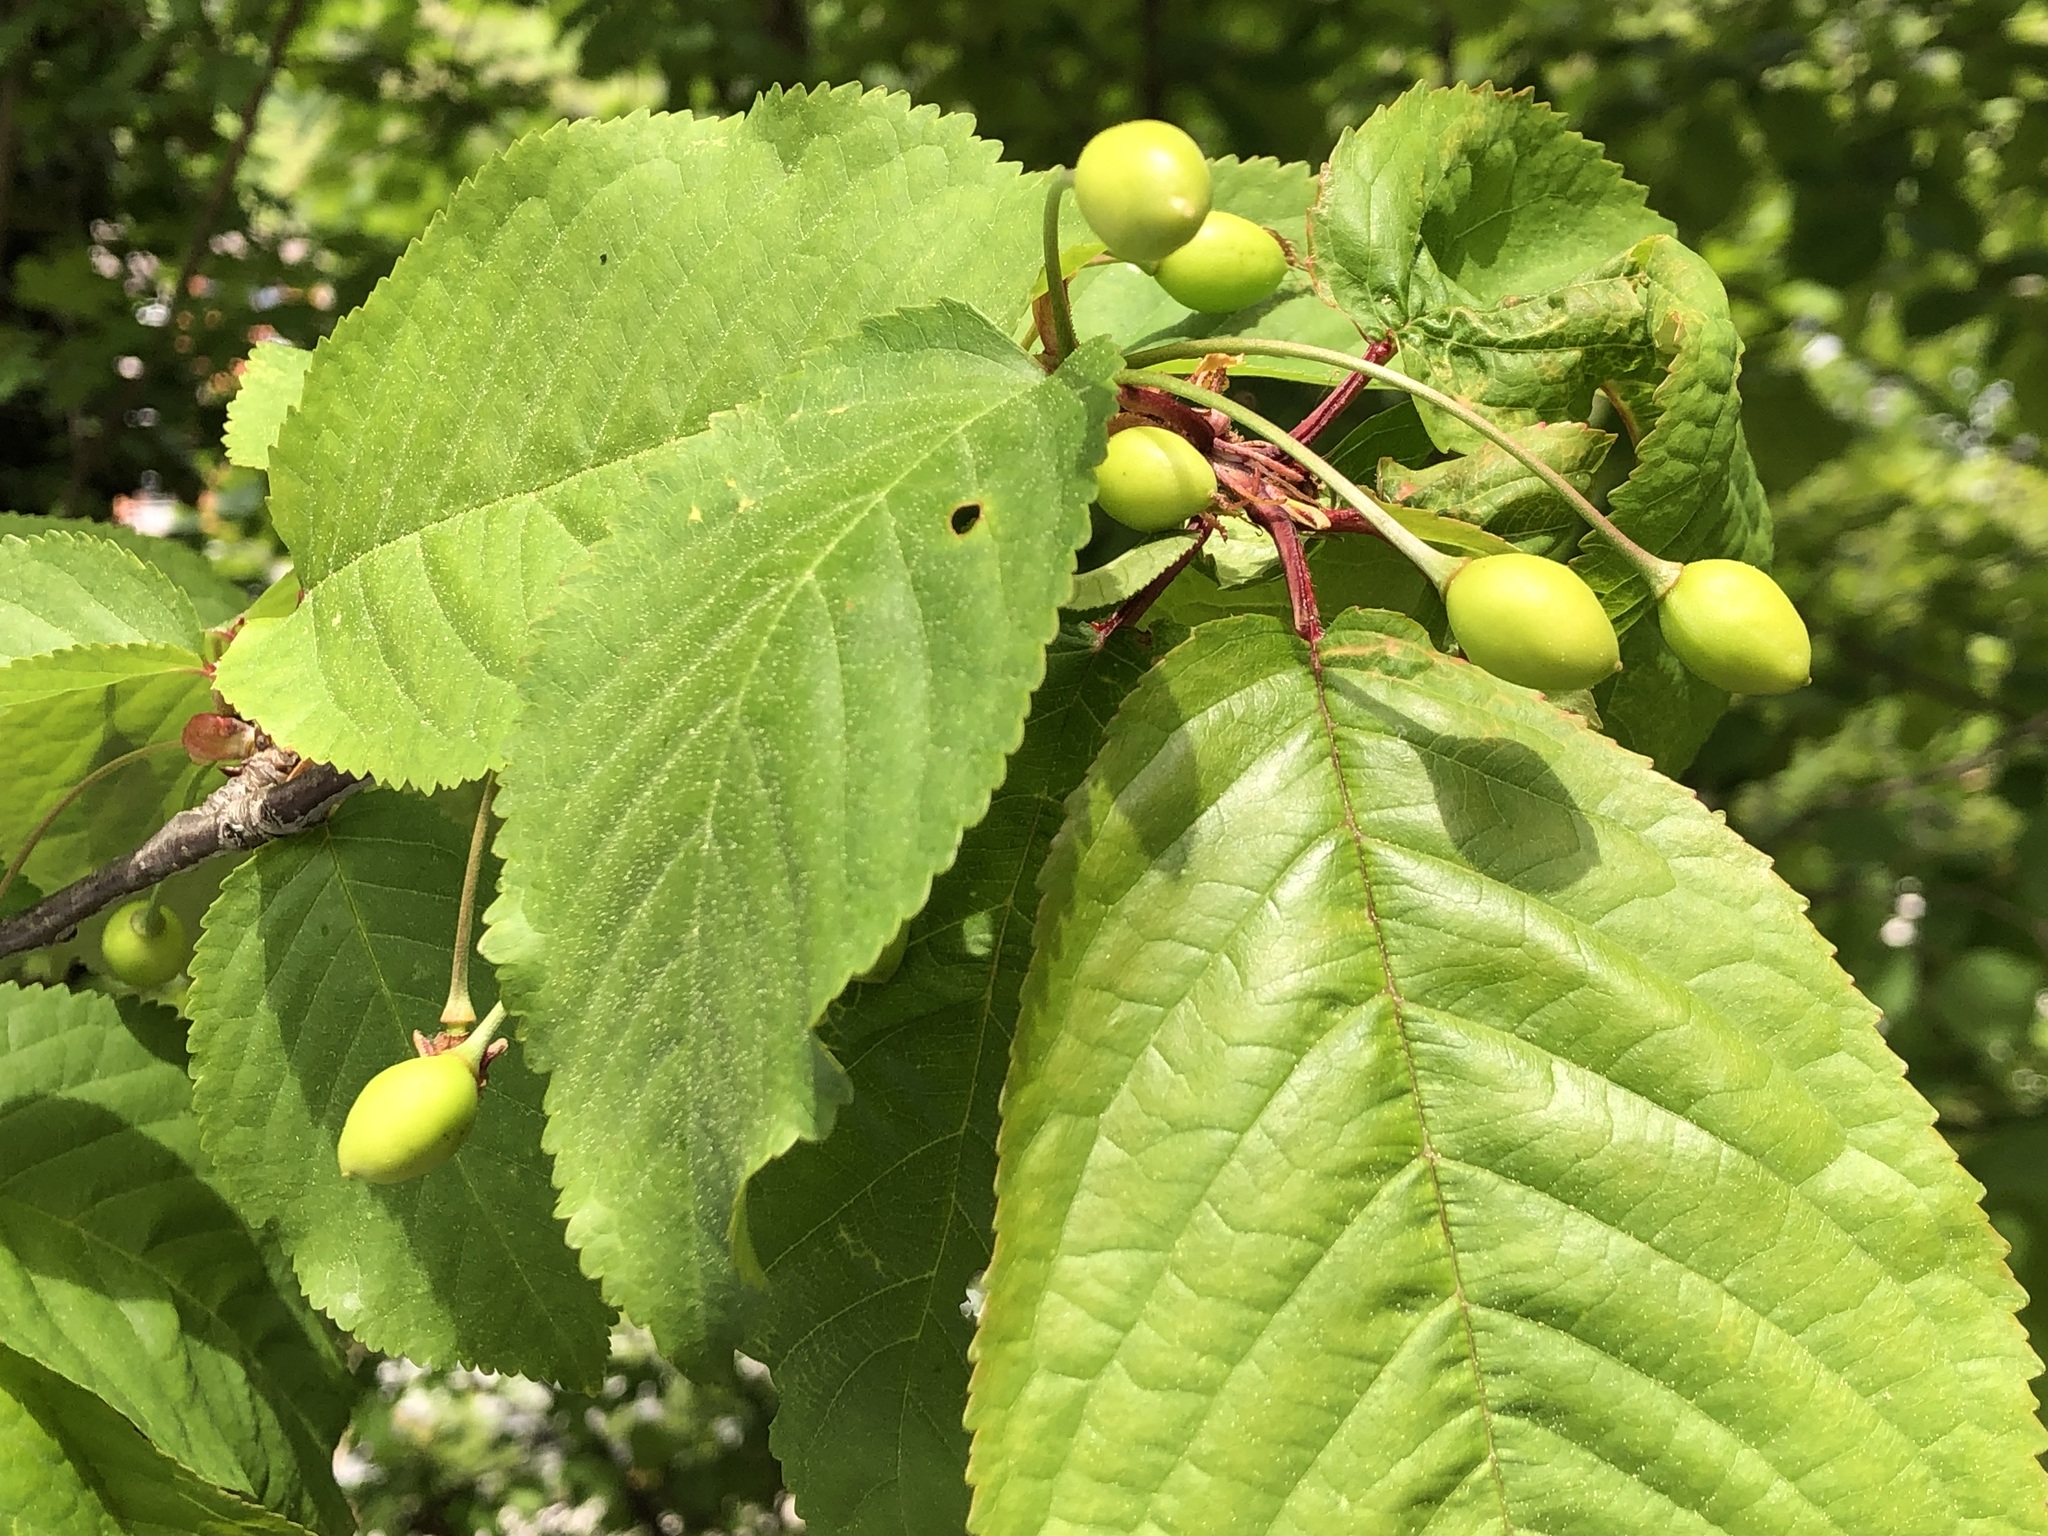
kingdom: Plantae
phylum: Tracheophyta
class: Magnoliopsida
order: Rosales
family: Rosaceae
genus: Prunus
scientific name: Prunus avium
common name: Sweet cherry
